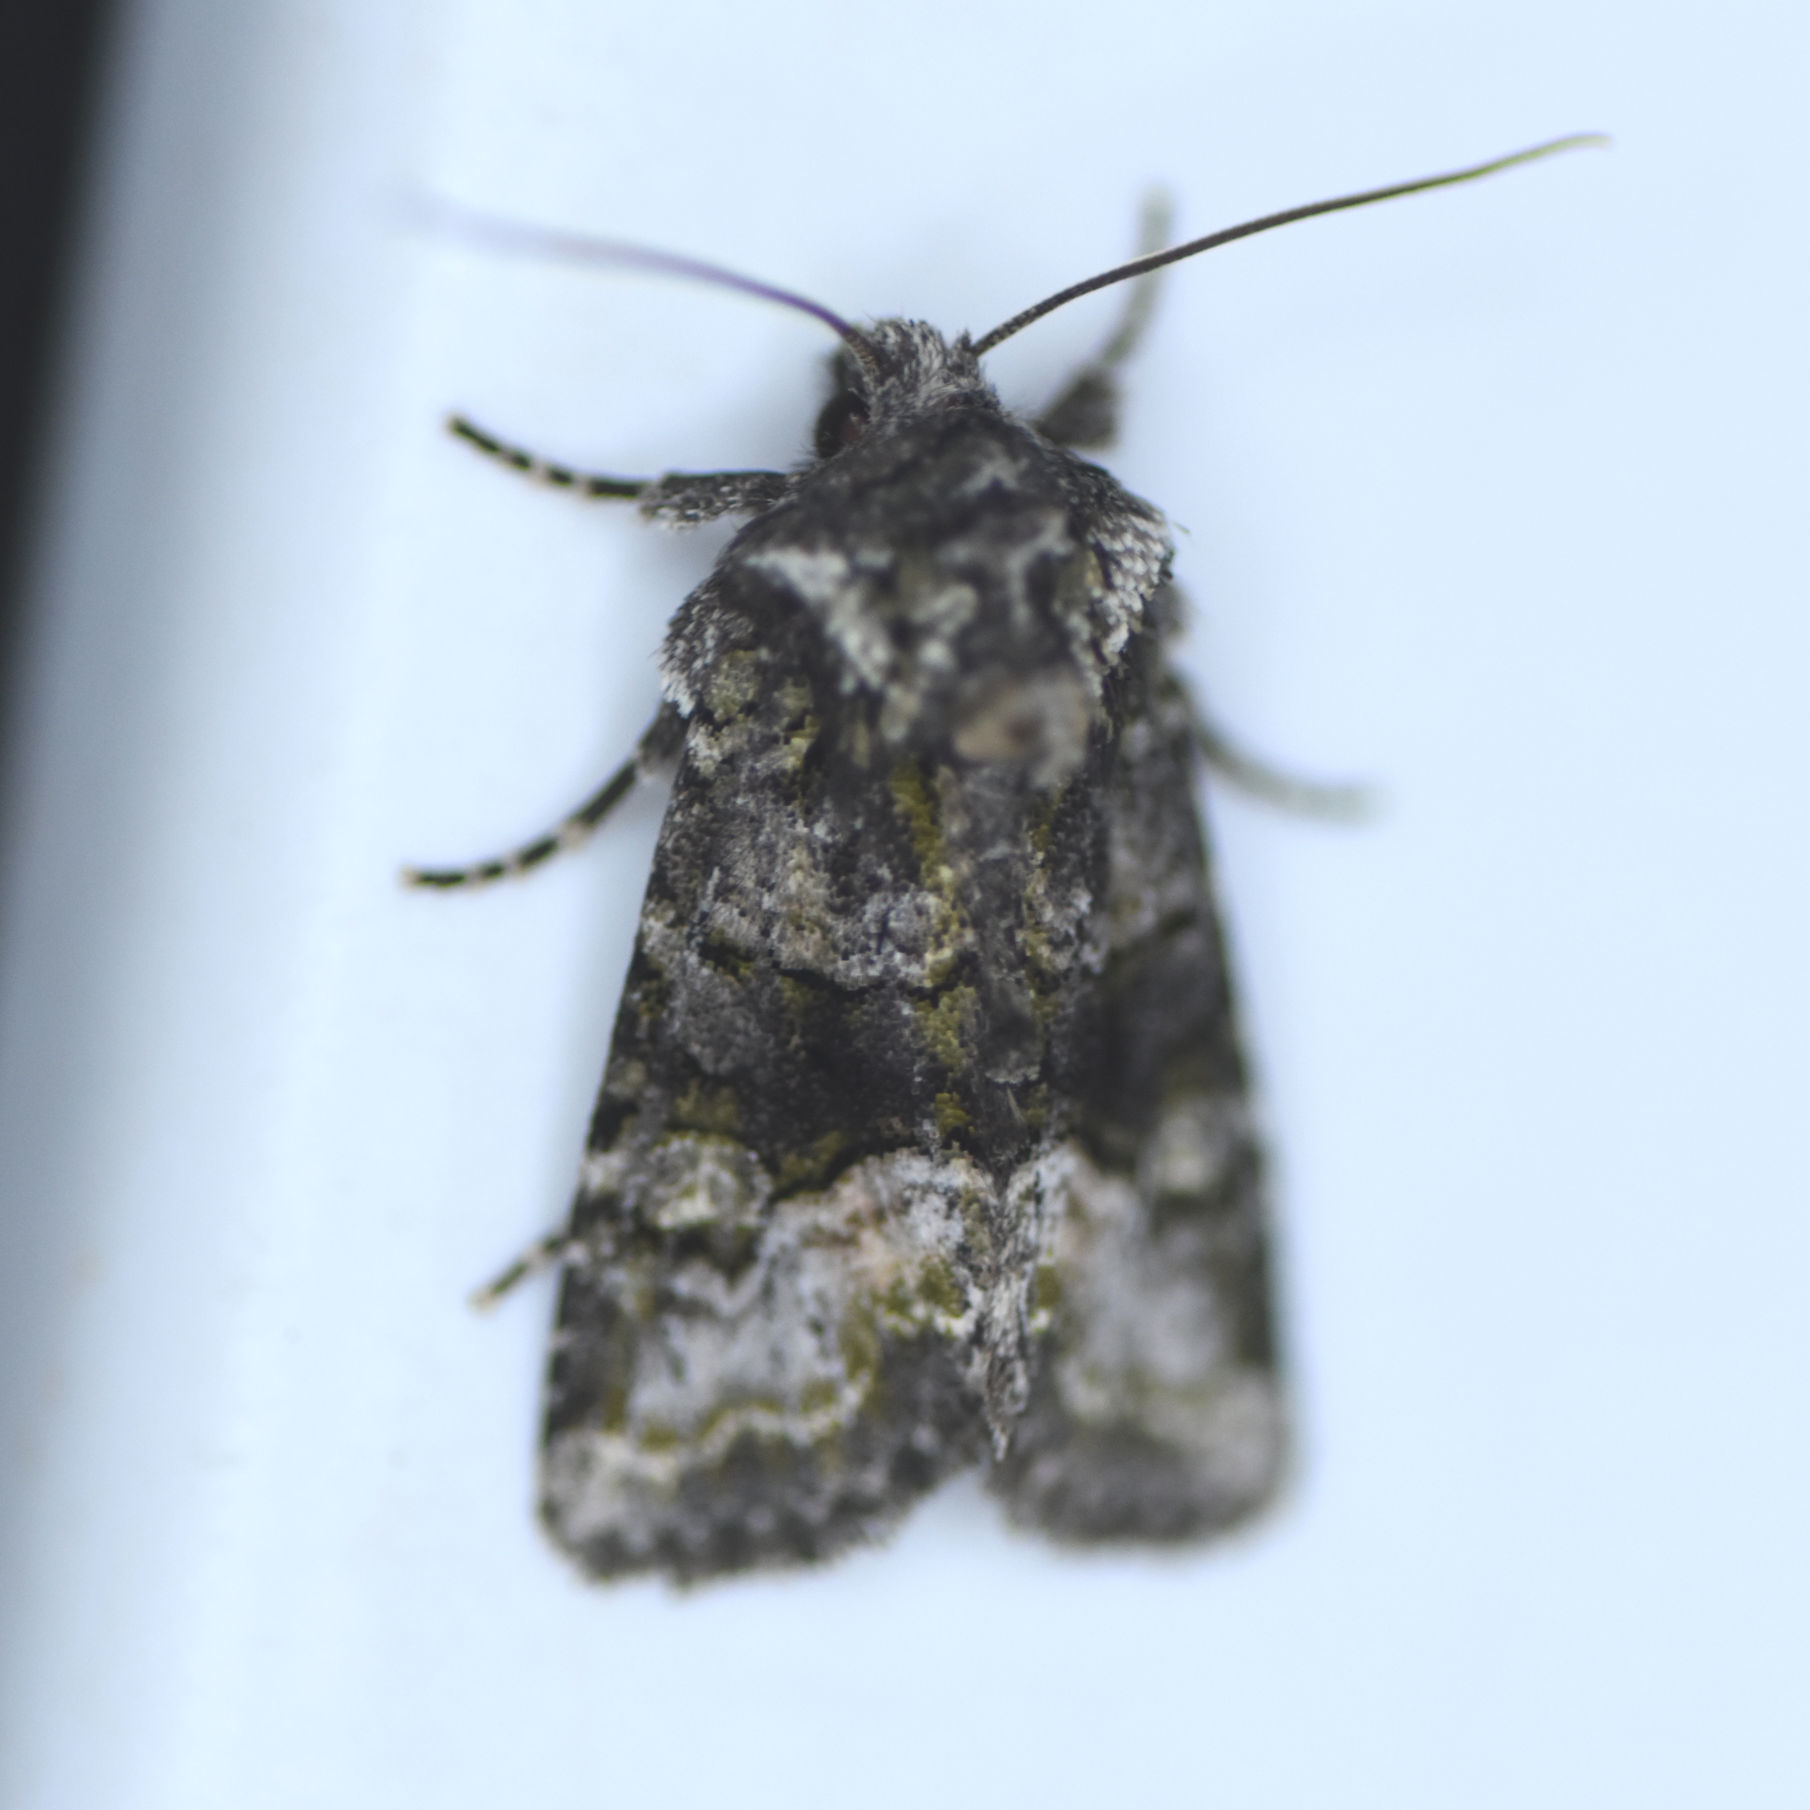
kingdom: Animalia
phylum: Arthropoda
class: Insecta
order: Lepidoptera
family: Noctuidae
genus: Lacinipolia
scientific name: Lacinipolia olivacea
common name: Olive arches moth
